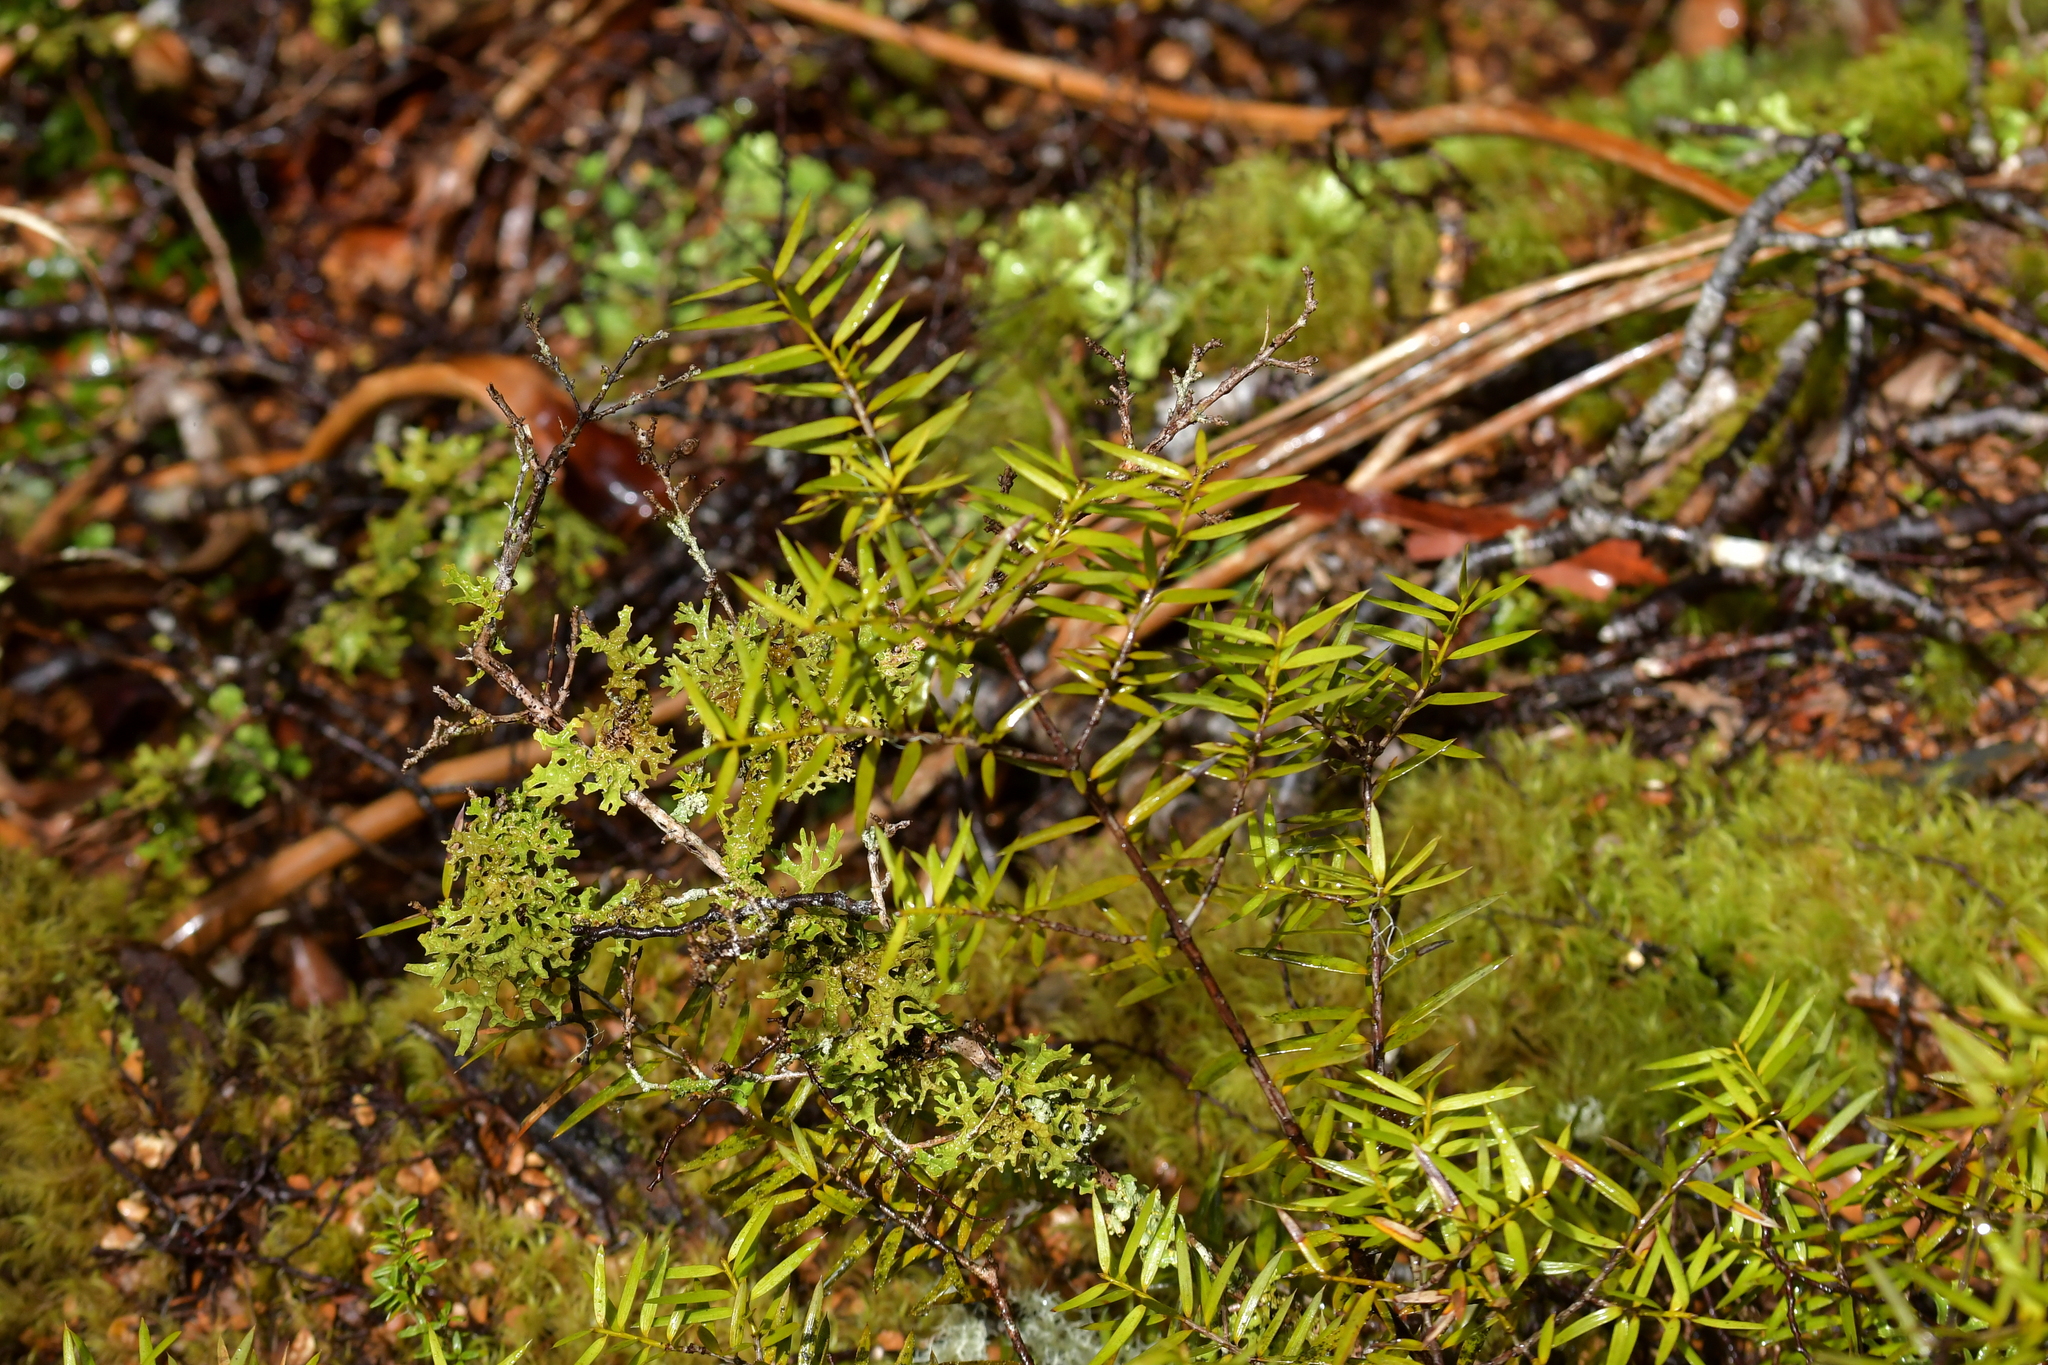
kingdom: Plantae
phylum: Tracheophyta
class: Pinopsida
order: Pinales
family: Podocarpaceae
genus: Podocarpus
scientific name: Podocarpus laetus
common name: Hall's totara
